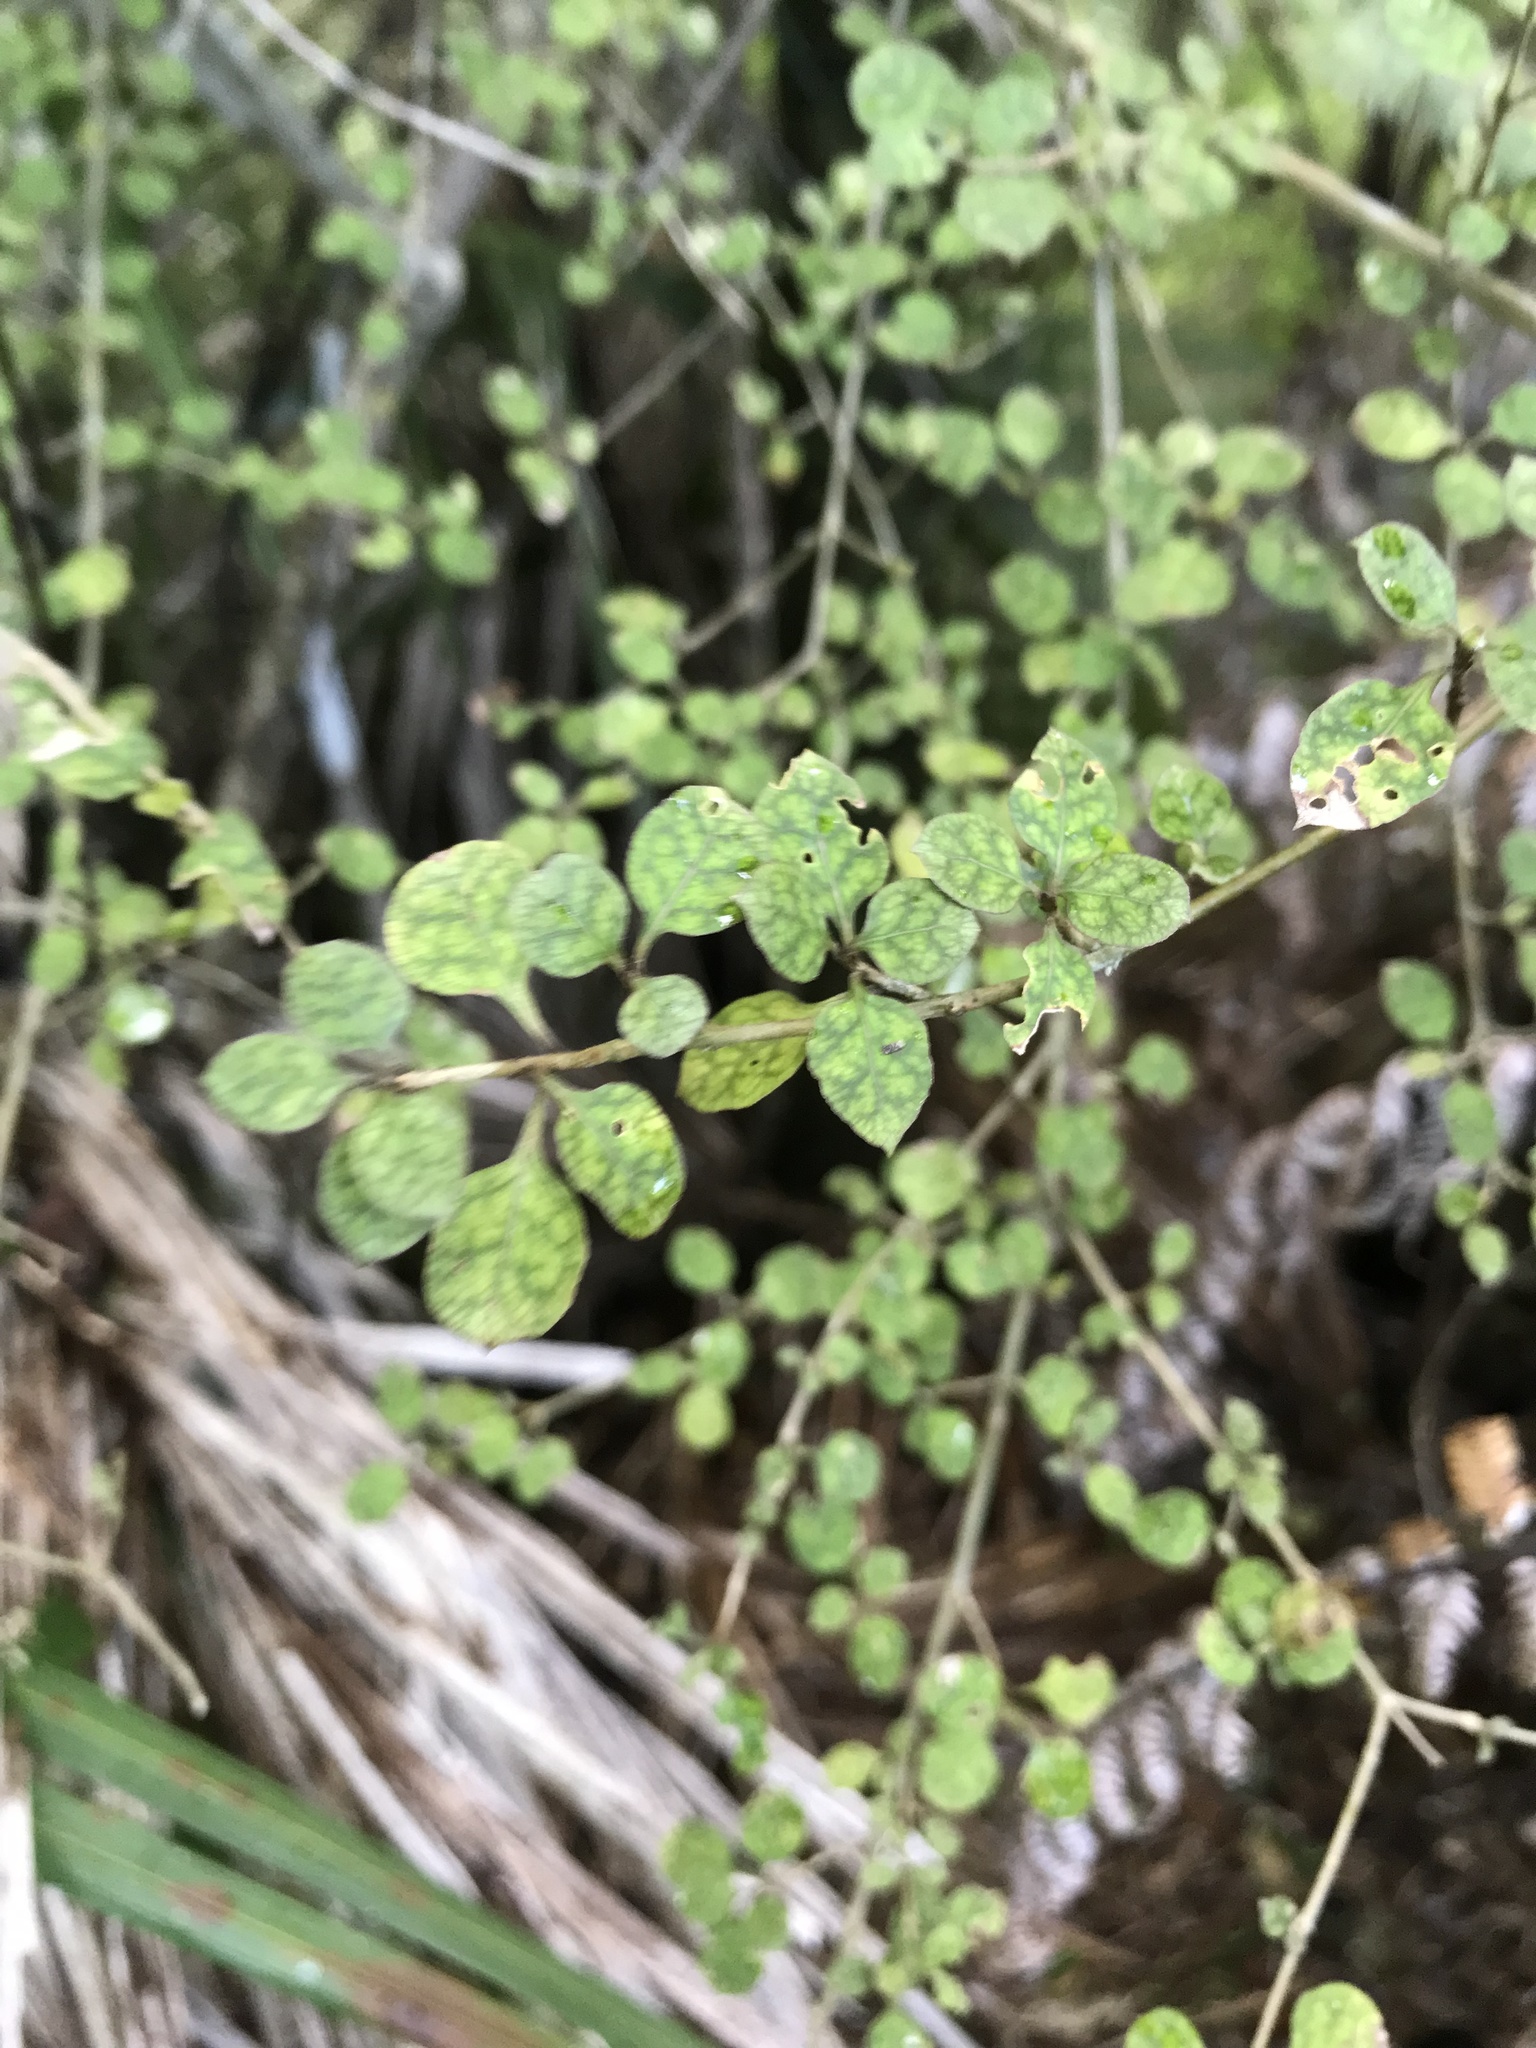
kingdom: Plantae
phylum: Tracheophyta
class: Magnoliopsida
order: Gentianales
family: Rubiaceae
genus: Coprosma
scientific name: Coprosma areolata
